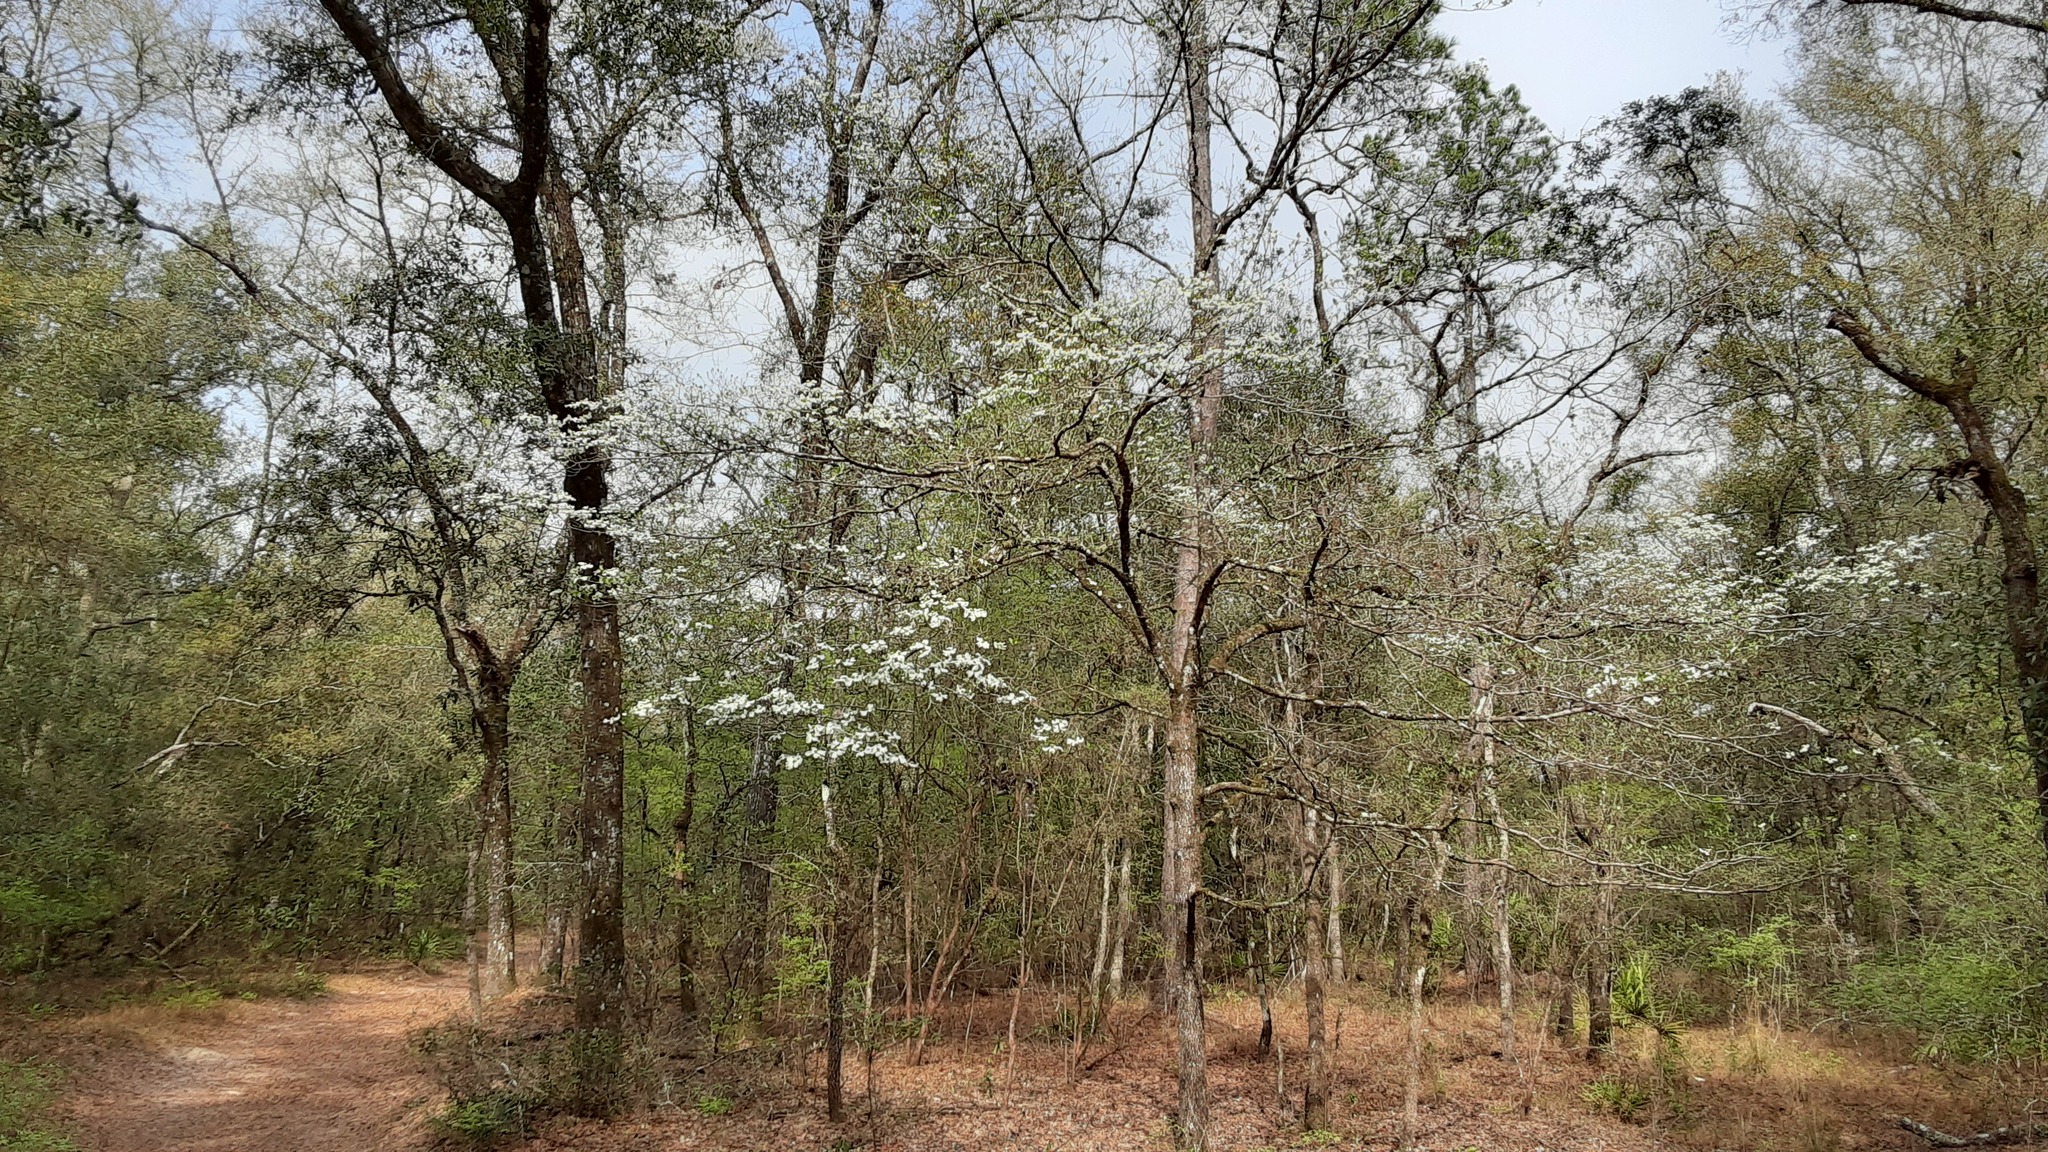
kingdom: Plantae
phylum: Tracheophyta
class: Magnoliopsida
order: Cornales
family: Cornaceae
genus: Cornus
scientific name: Cornus florida
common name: Flowering dogwood
